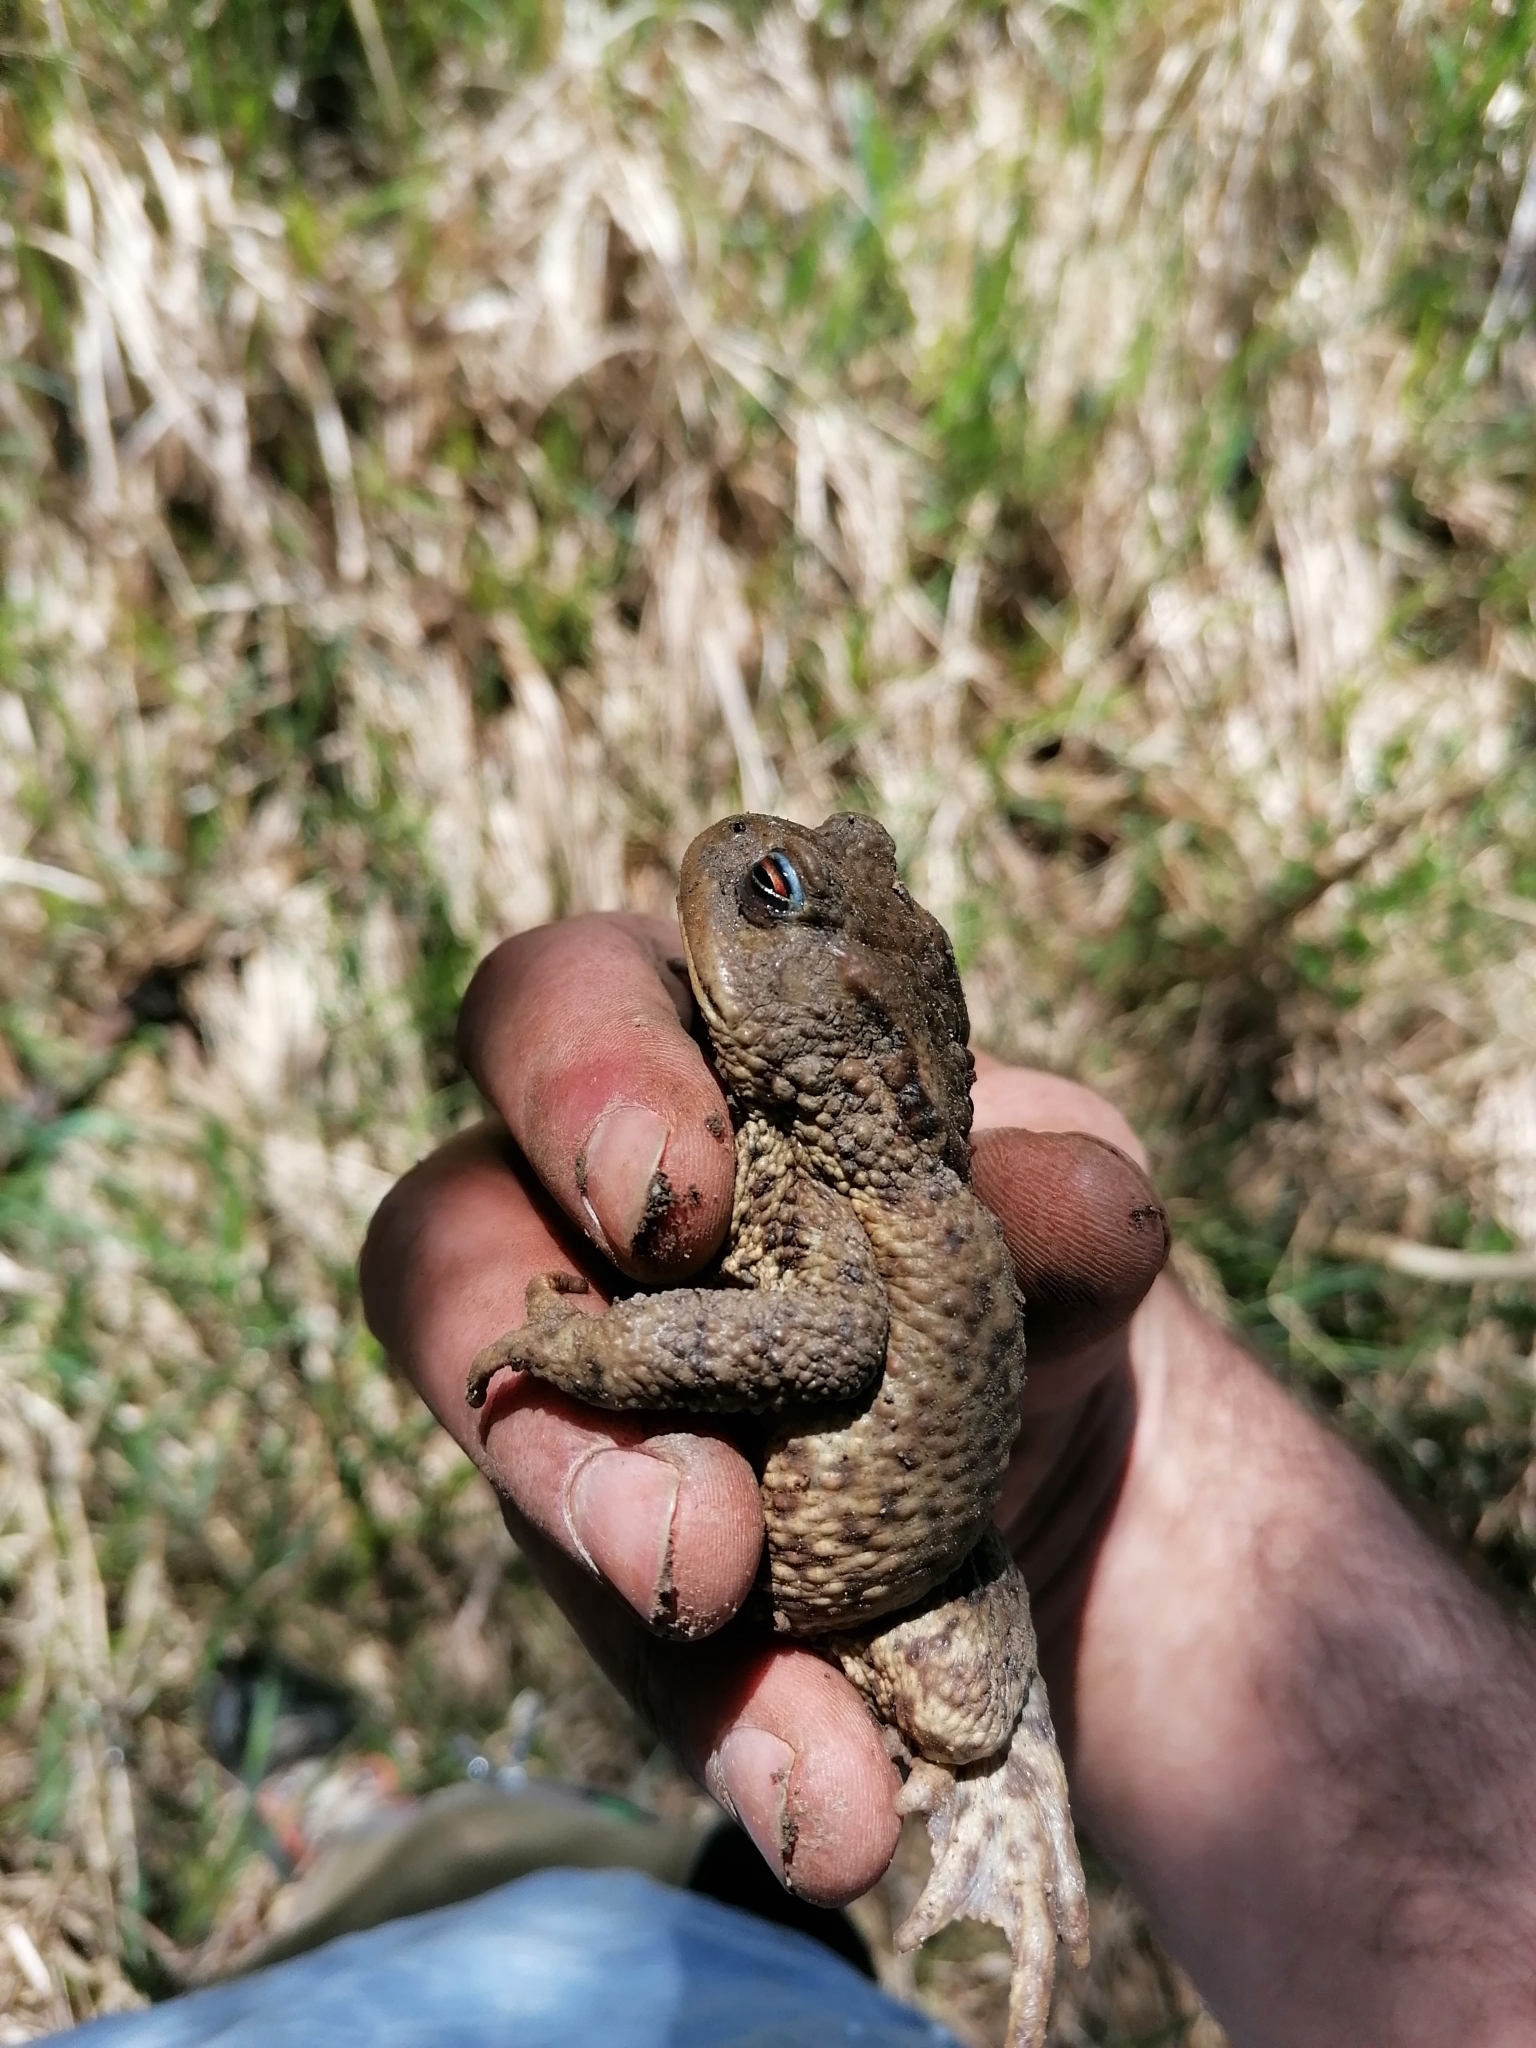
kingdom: Animalia
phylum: Chordata
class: Amphibia
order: Anura
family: Bufonidae
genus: Bufo
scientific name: Bufo bufo
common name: Common toad
